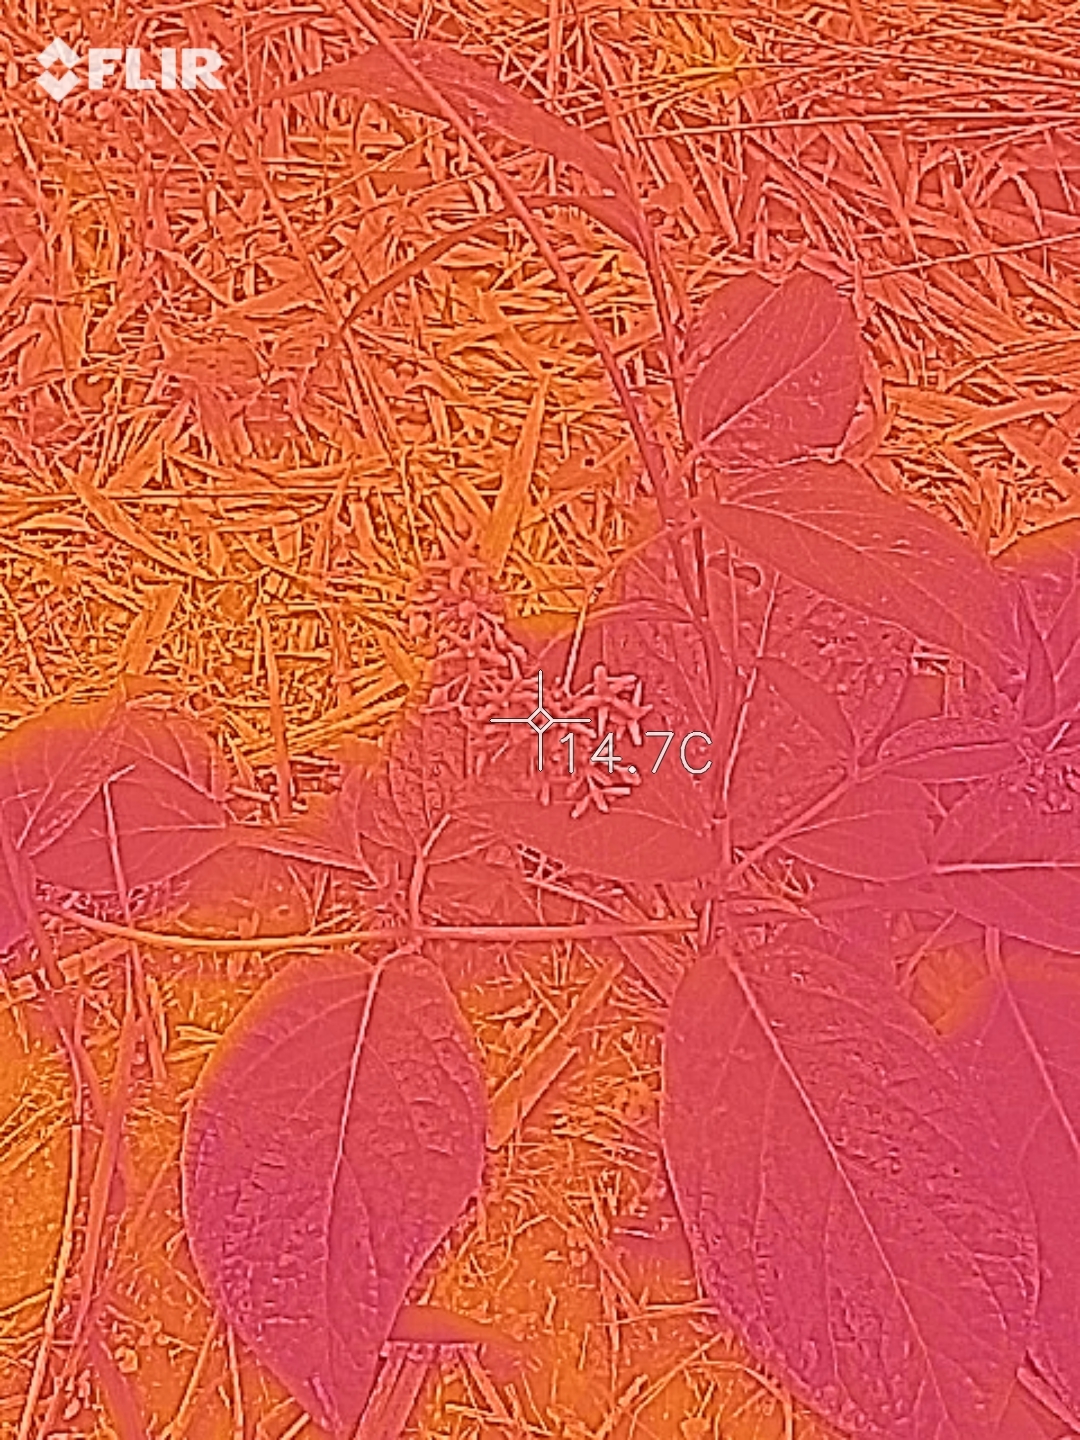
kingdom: Plantae
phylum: Tracheophyta
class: Magnoliopsida
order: Gentianales
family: Apocynaceae
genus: Vincetoxicum
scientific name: Vincetoxicum japonicum
